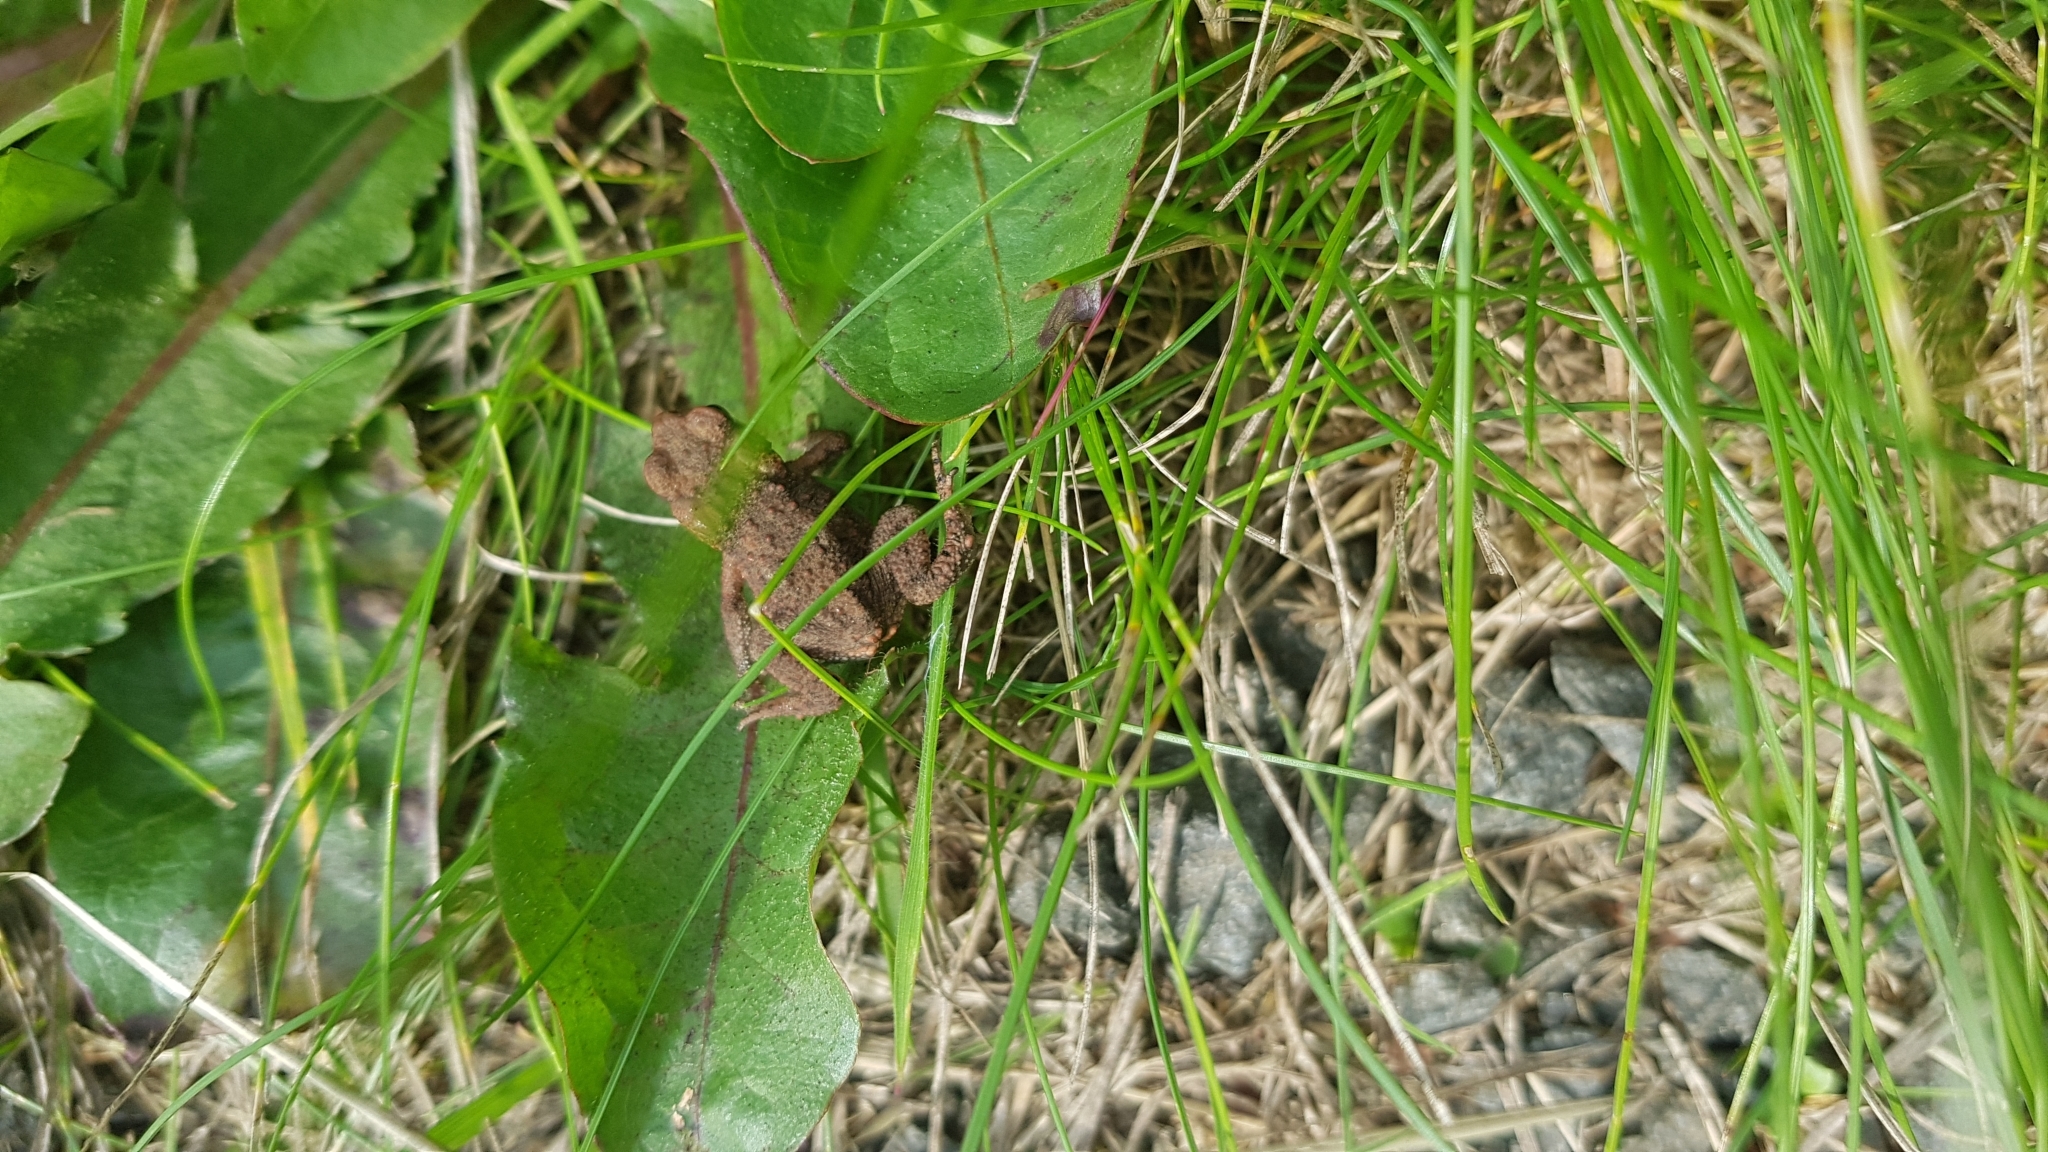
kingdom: Animalia
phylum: Chordata
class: Amphibia
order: Anura
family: Bufonidae
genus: Bufo
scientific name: Bufo bufo
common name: Common toad
